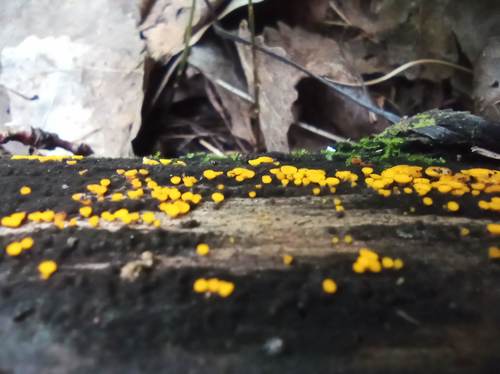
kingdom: Fungi
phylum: Ascomycota
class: Leotiomycetes
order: Helotiales
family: Pezizellaceae
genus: Calycina
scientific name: Calycina citrina
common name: Yellow fairy cups
